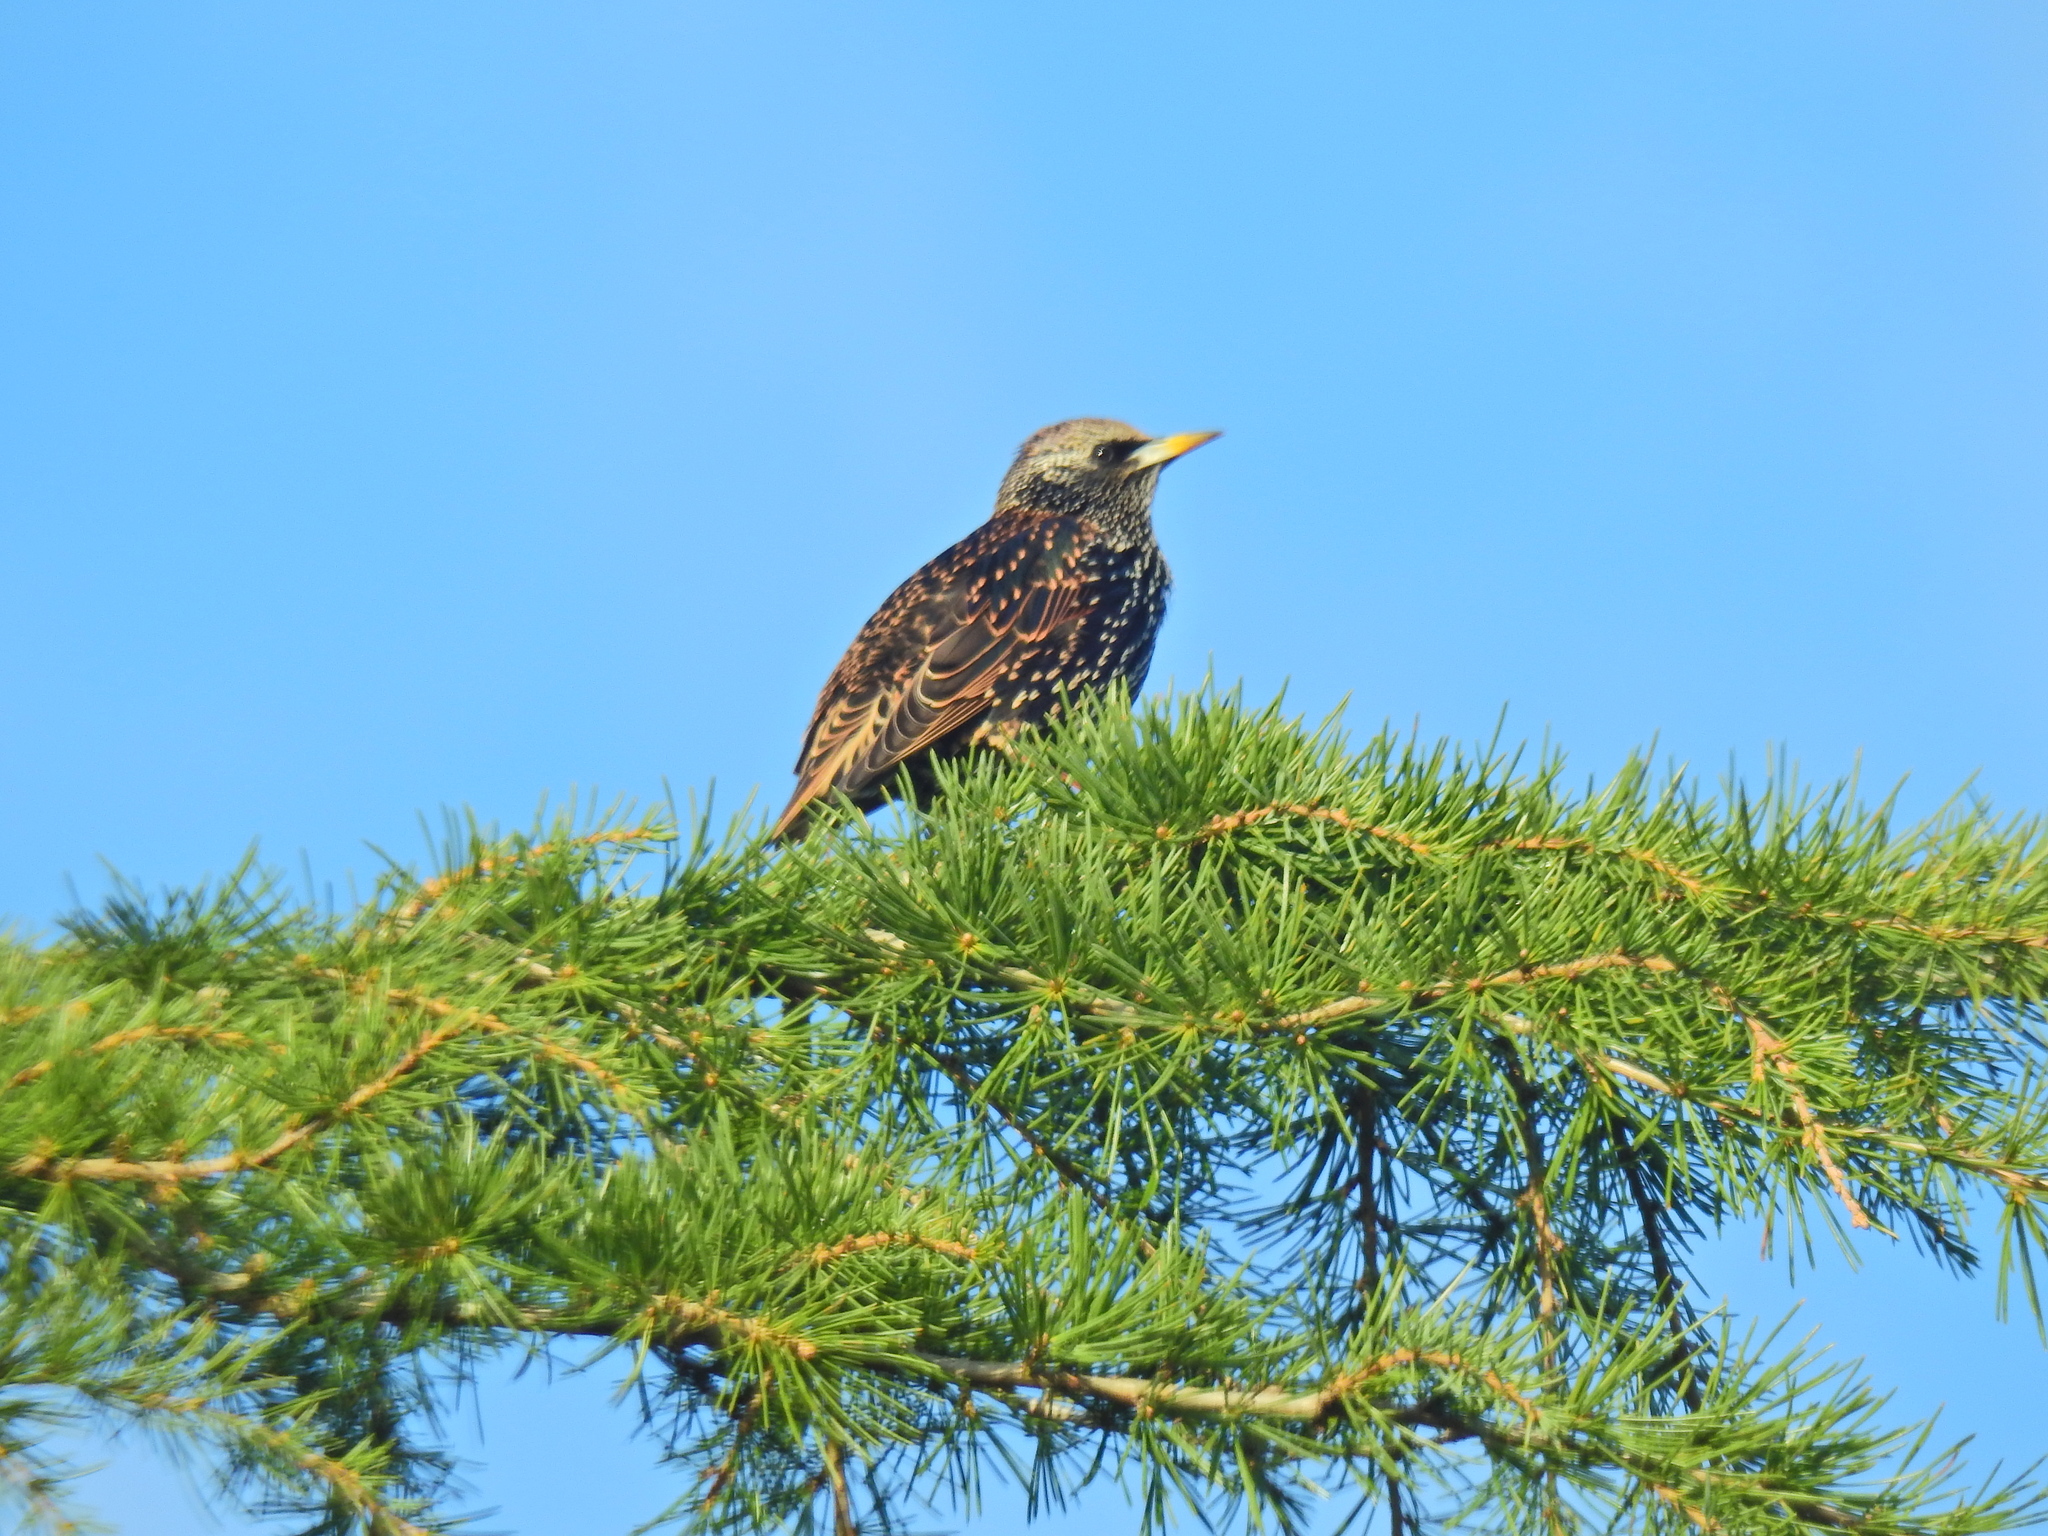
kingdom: Animalia
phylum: Chordata
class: Aves
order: Passeriformes
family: Sturnidae
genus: Sturnus
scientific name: Sturnus vulgaris
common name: Common starling
